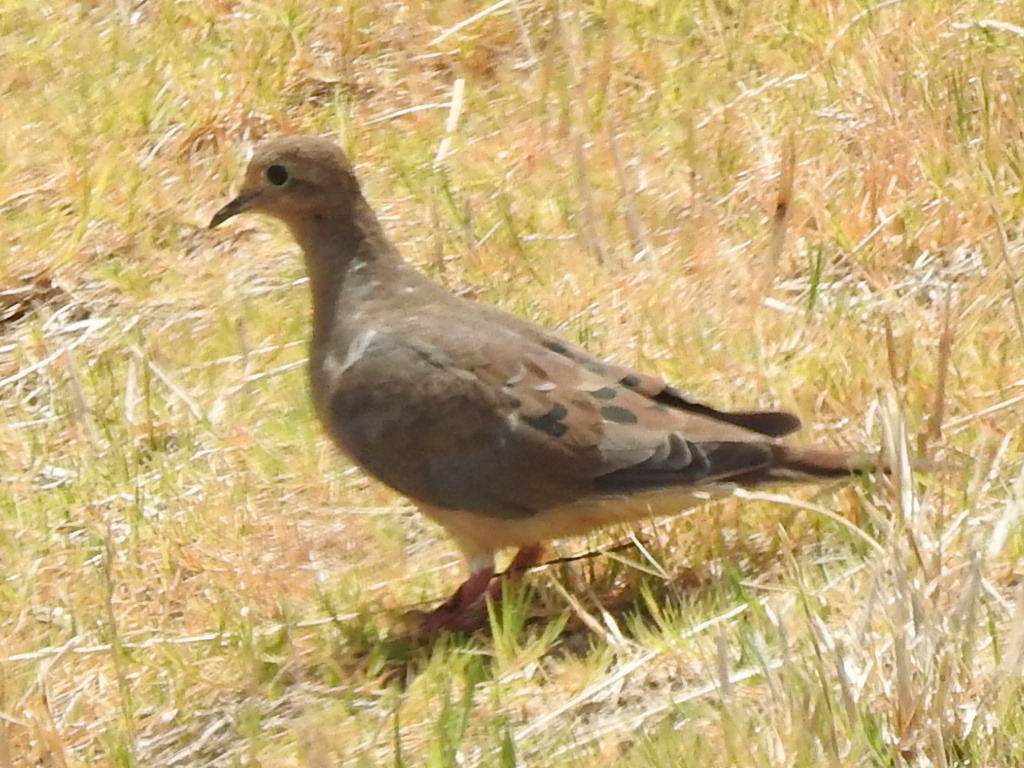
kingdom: Animalia
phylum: Chordata
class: Aves
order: Columbiformes
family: Columbidae
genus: Zenaida
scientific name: Zenaida macroura
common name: Mourning dove
